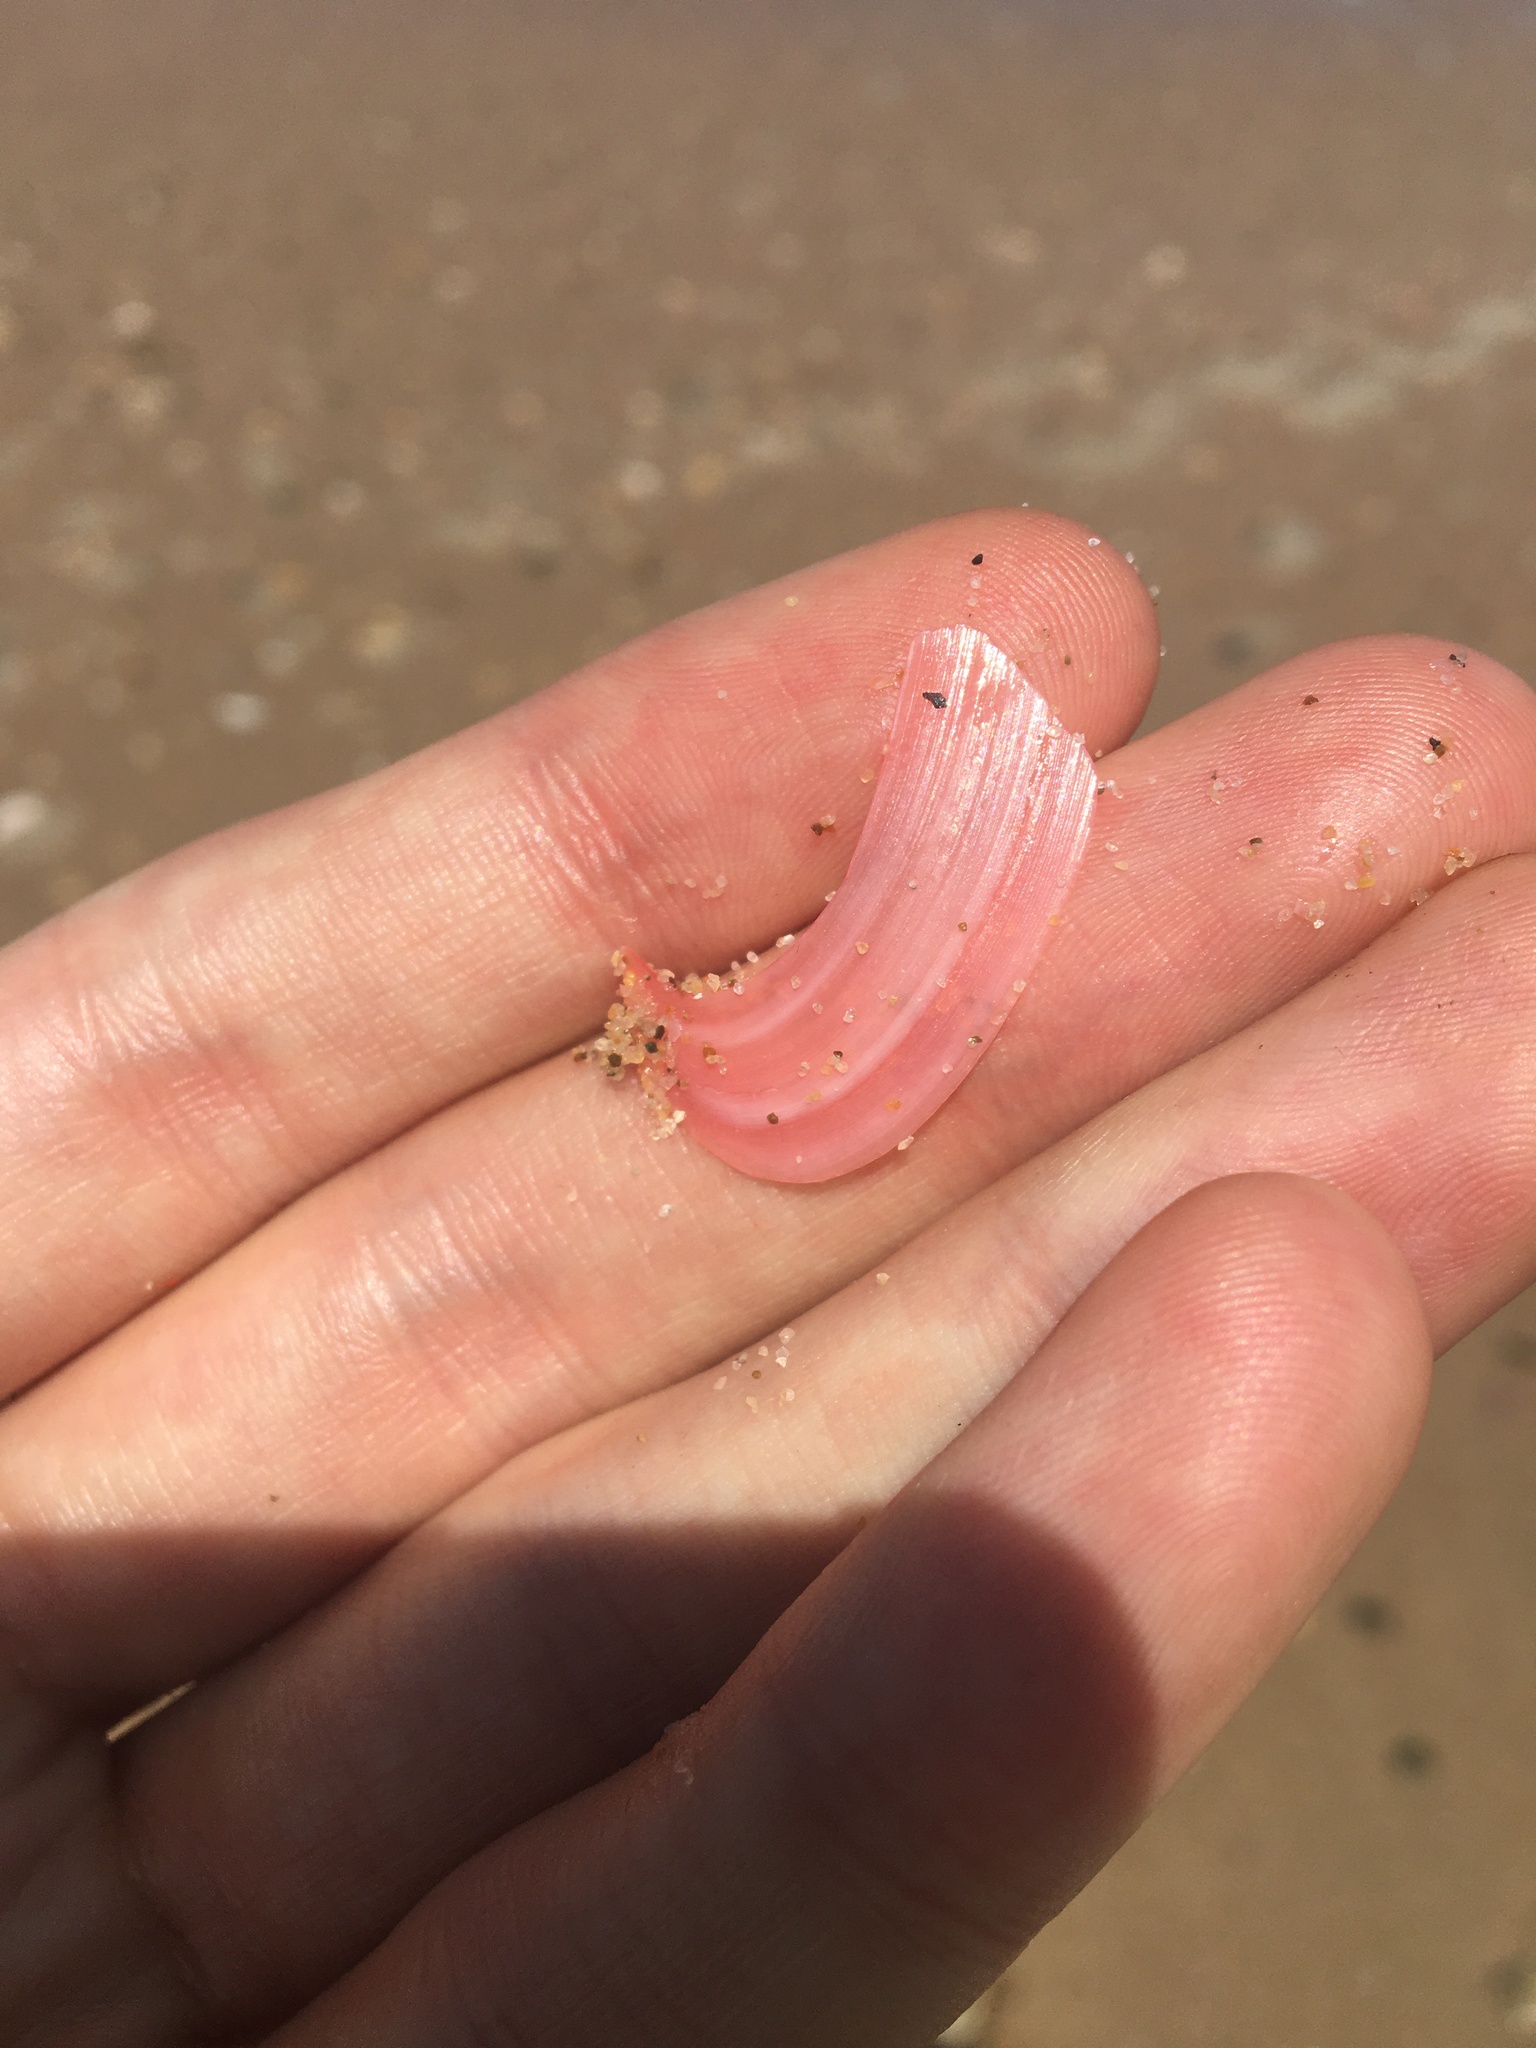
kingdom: Animalia
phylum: Mollusca
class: Bivalvia
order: Cardiida
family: Tellinidae
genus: Tellinota
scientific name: Tellinota albinella
